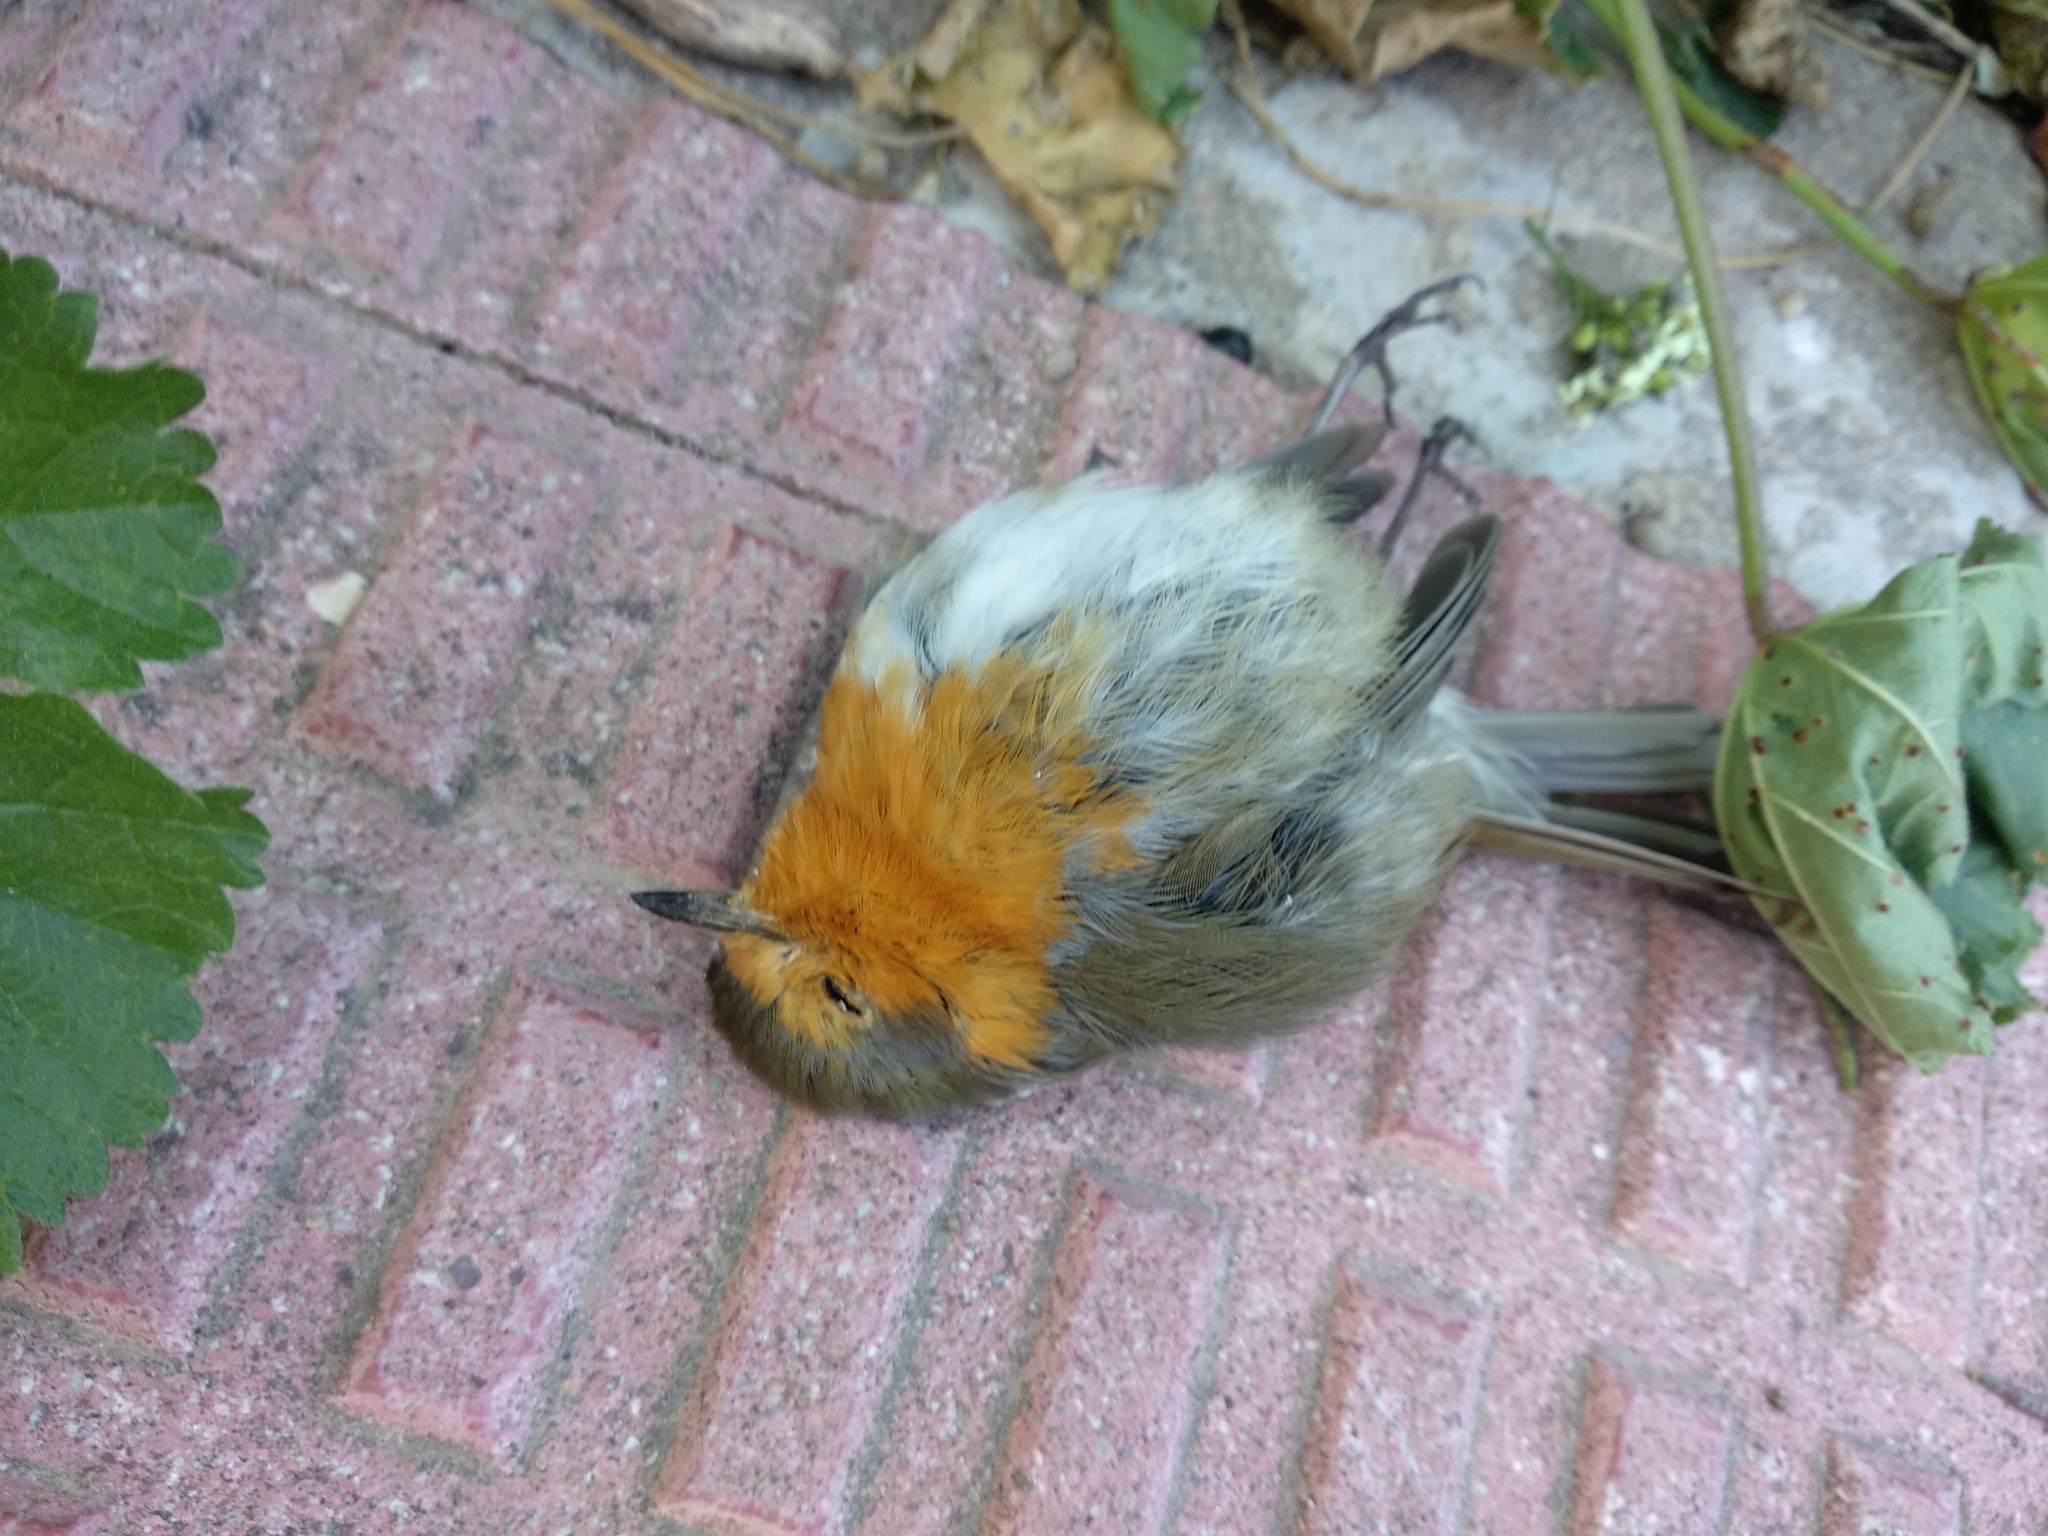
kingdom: Animalia
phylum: Chordata
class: Aves
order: Passeriformes
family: Muscicapidae
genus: Erithacus
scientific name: Erithacus rubecula
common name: European robin
